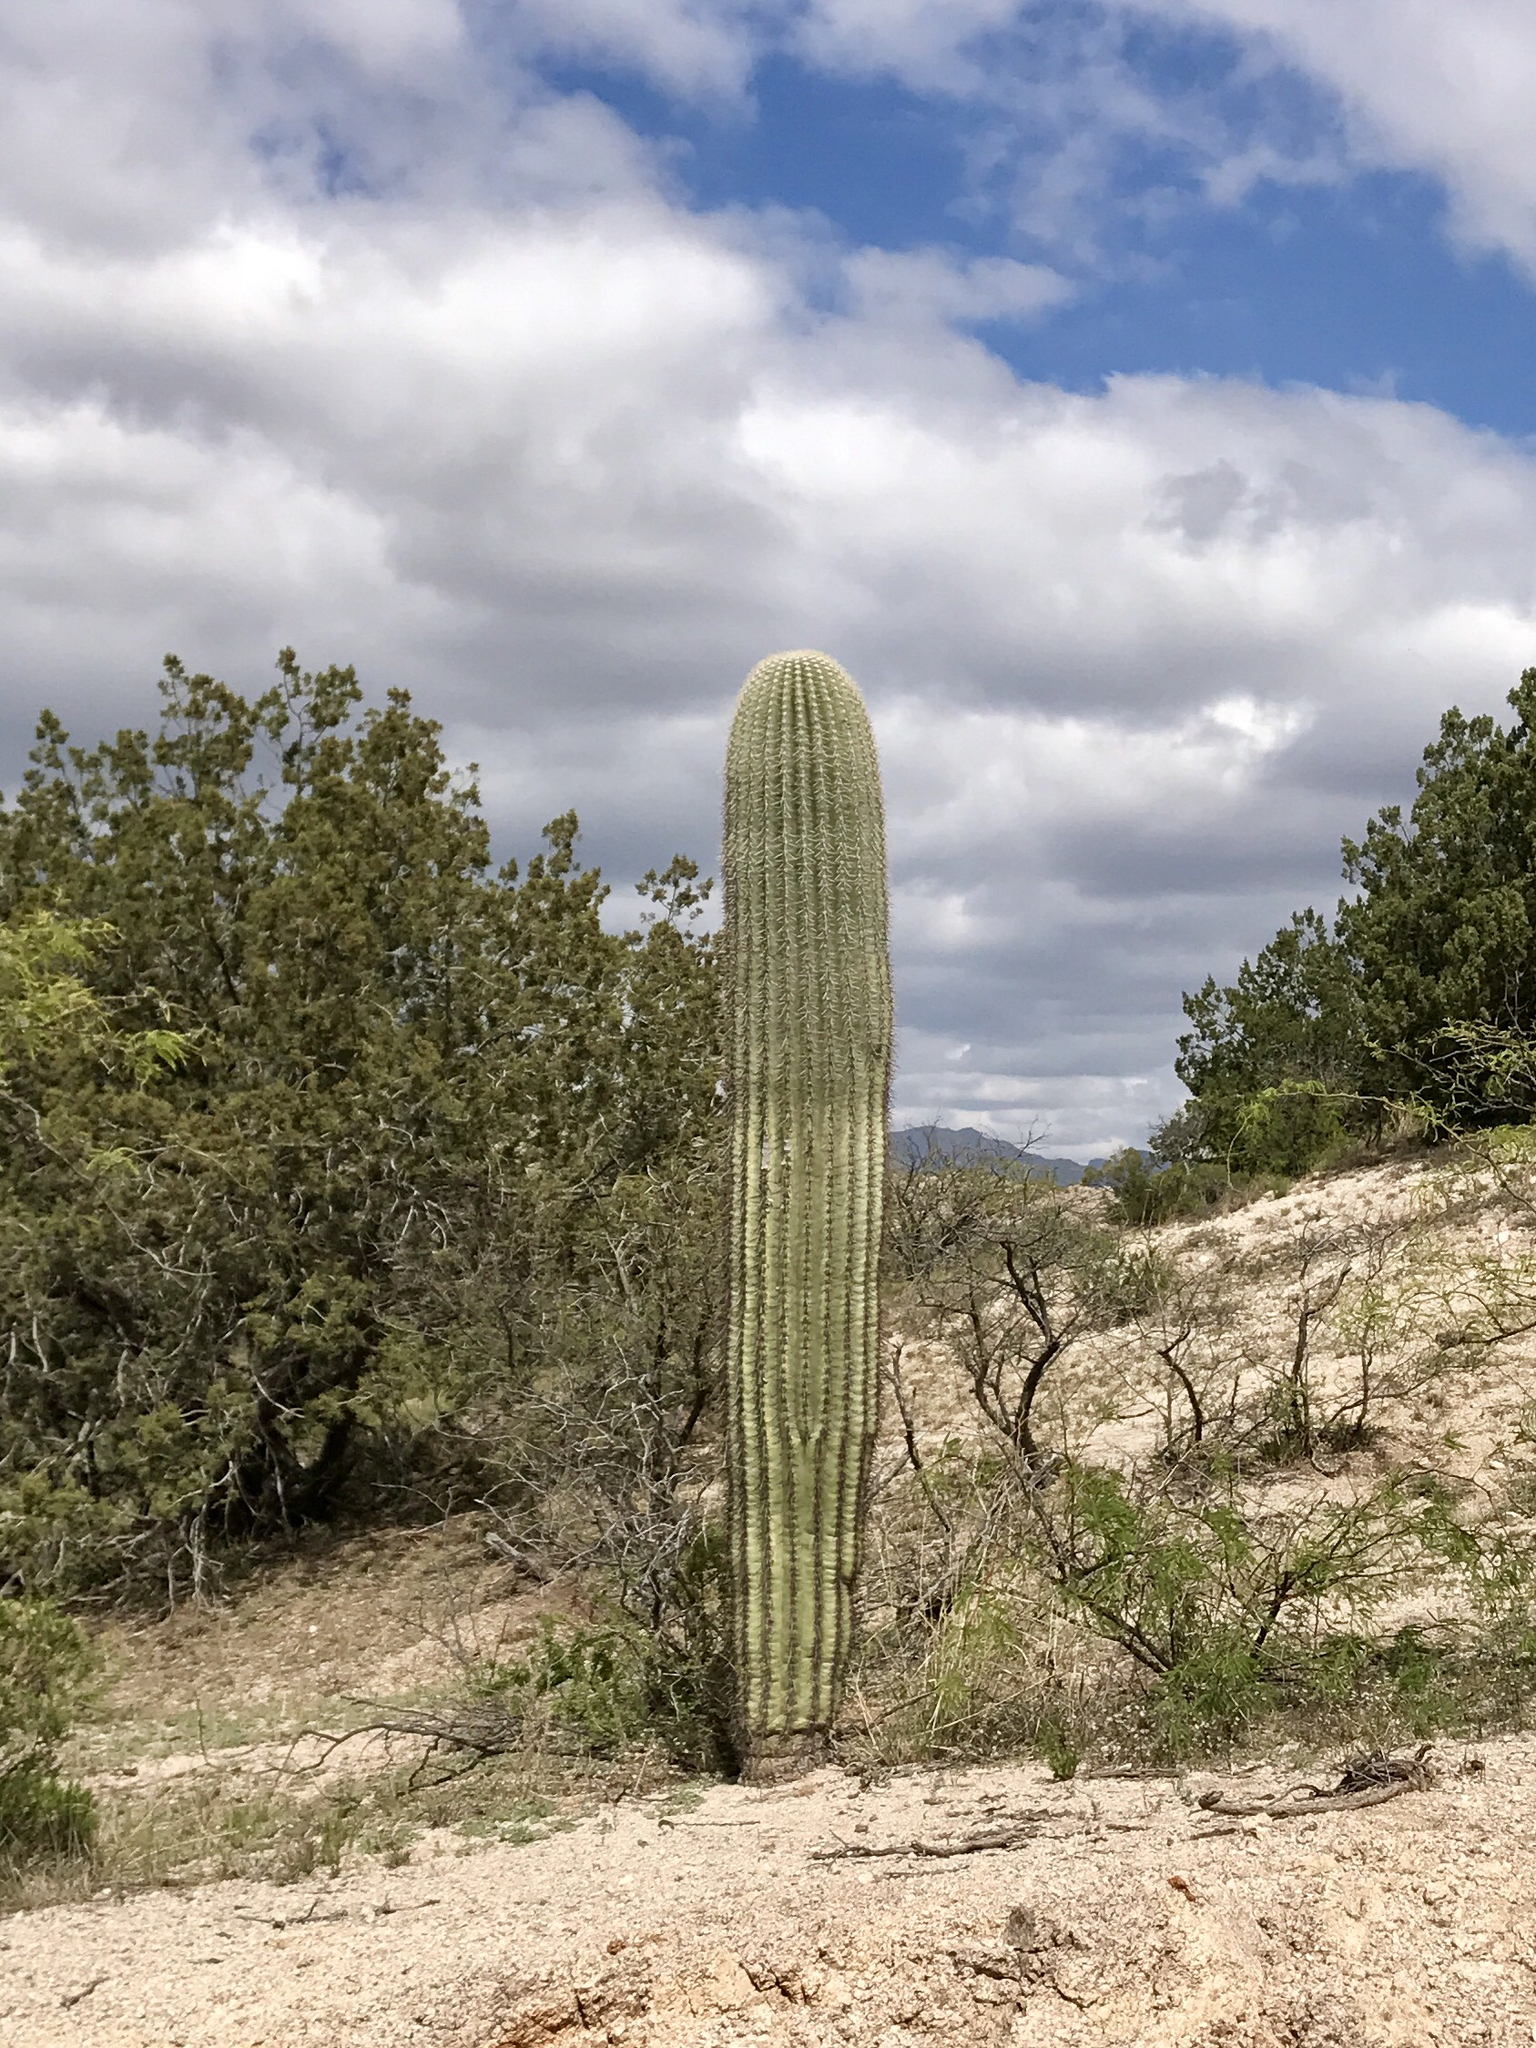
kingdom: Plantae
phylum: Tracheophyta
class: Magnoliopsida
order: Caryophyllales
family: Cactaceae
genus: Carnegiea
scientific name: Carnegiea gigantea
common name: Saguaro
